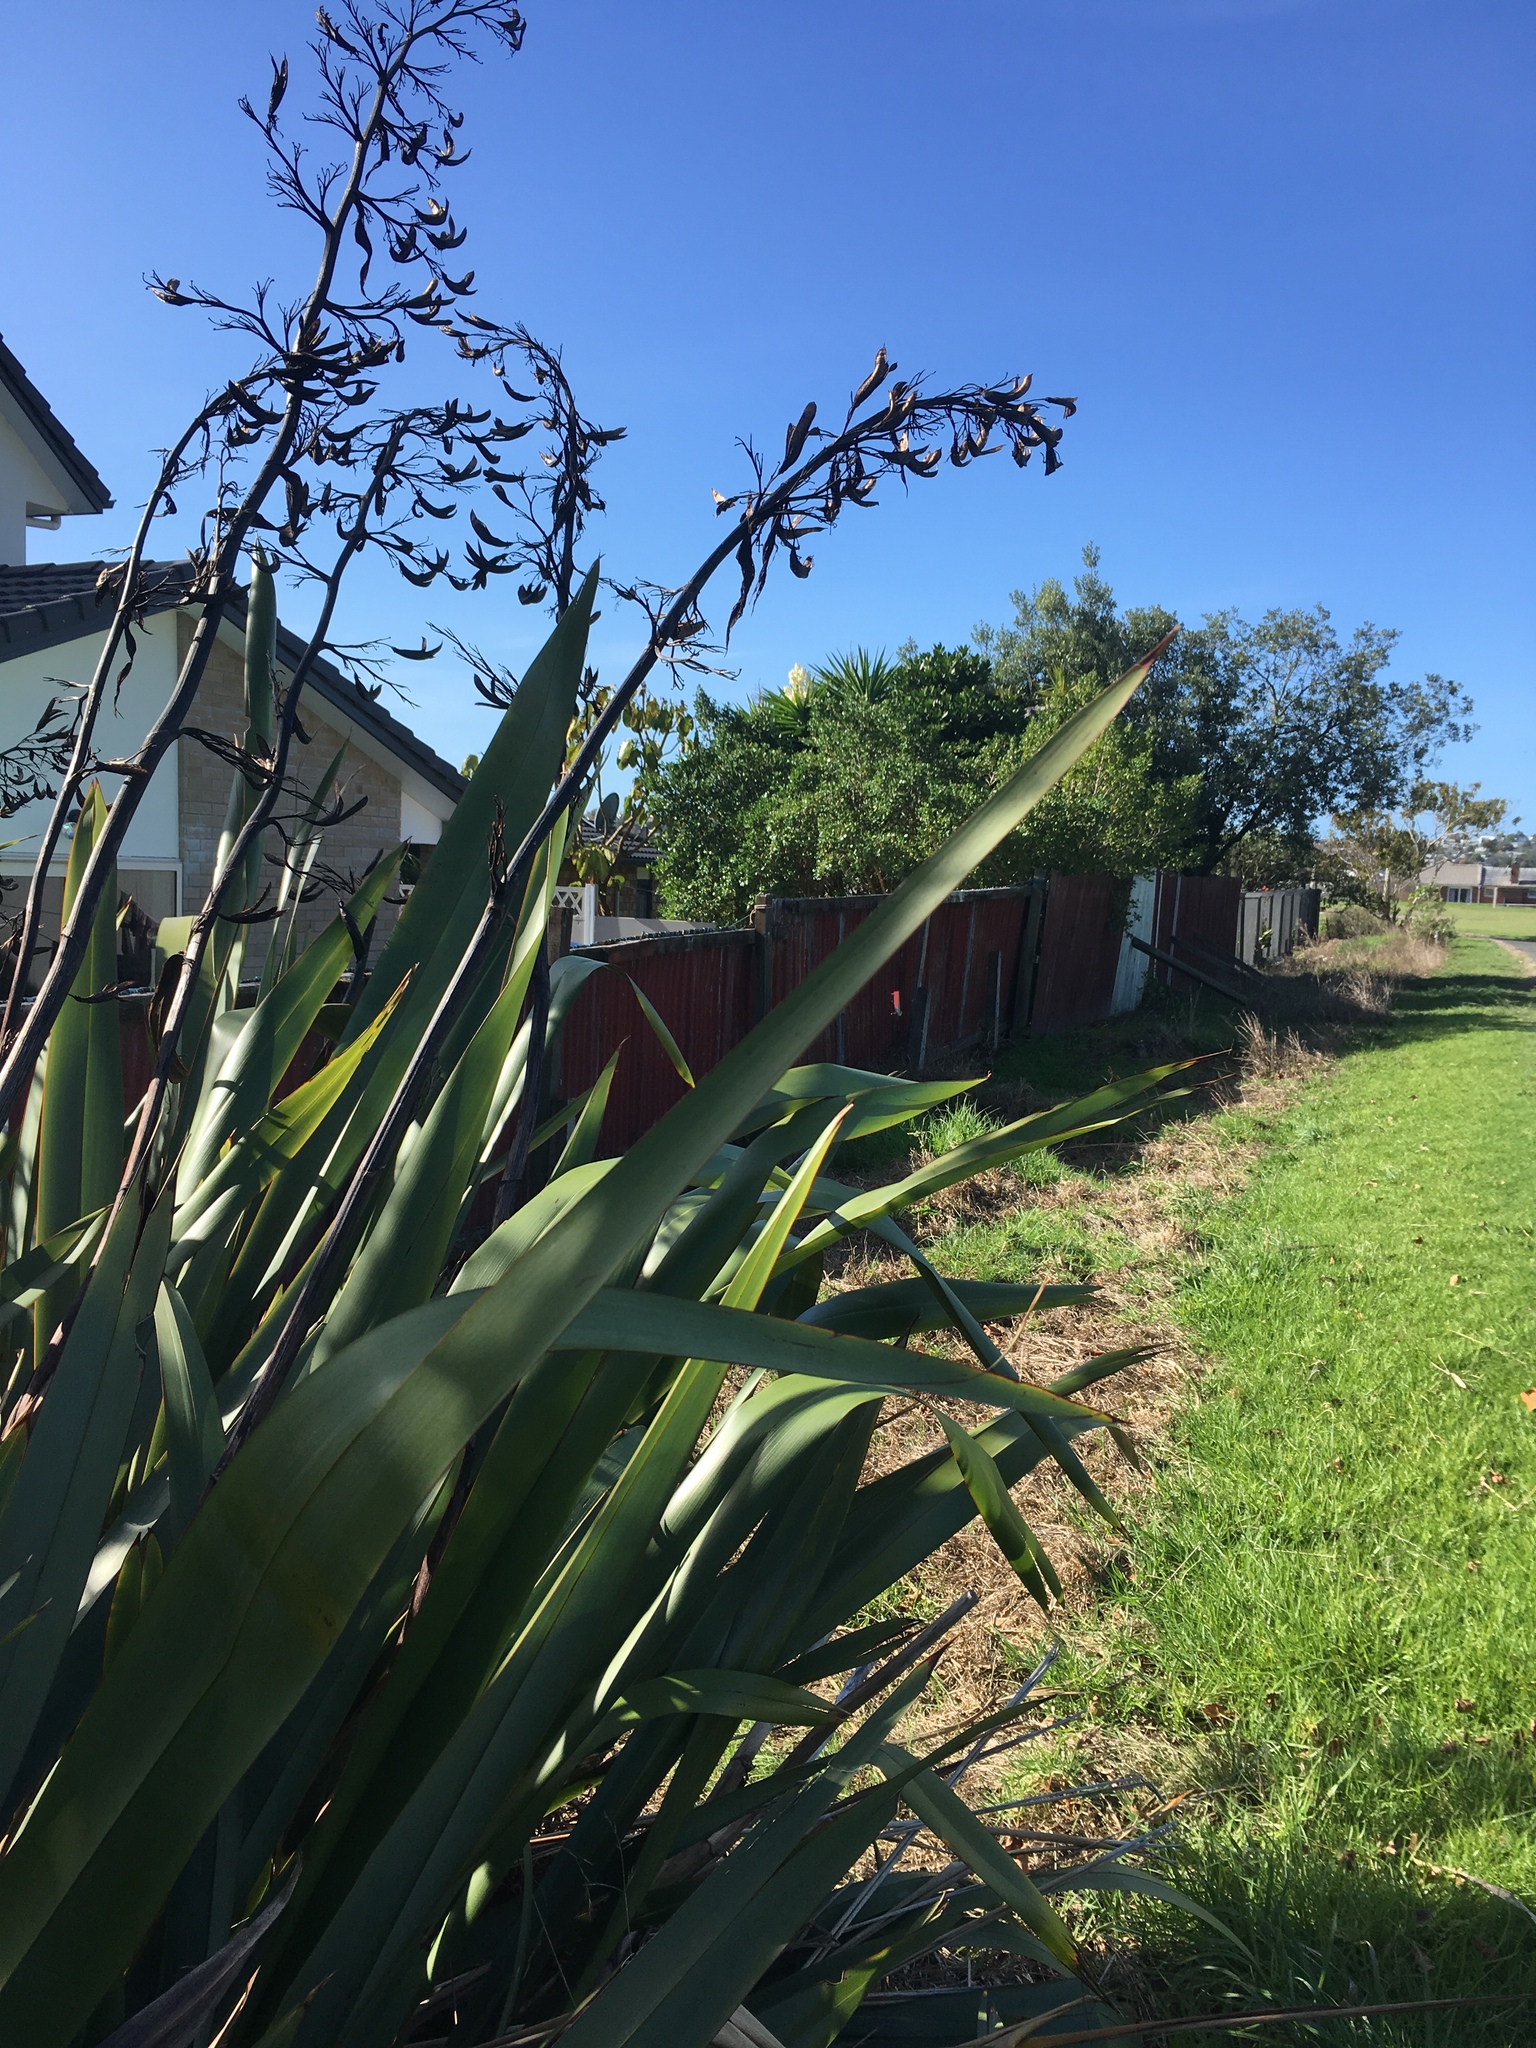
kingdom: Plantae
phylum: Tracheophyta
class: Liliopsida
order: Asparagales
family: Asphodelaceae
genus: Phormium
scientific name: Phormium tenax
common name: New zealand flax
